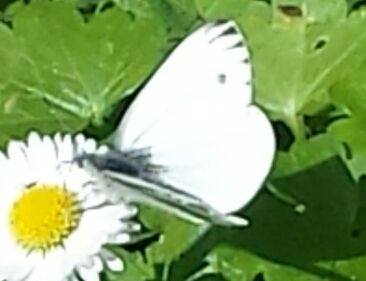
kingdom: Animalia
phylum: Arthropoda
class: Insecta
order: Lepidoptera
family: Pieridae
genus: Pieris
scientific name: Pieris marginalis
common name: Margined white
